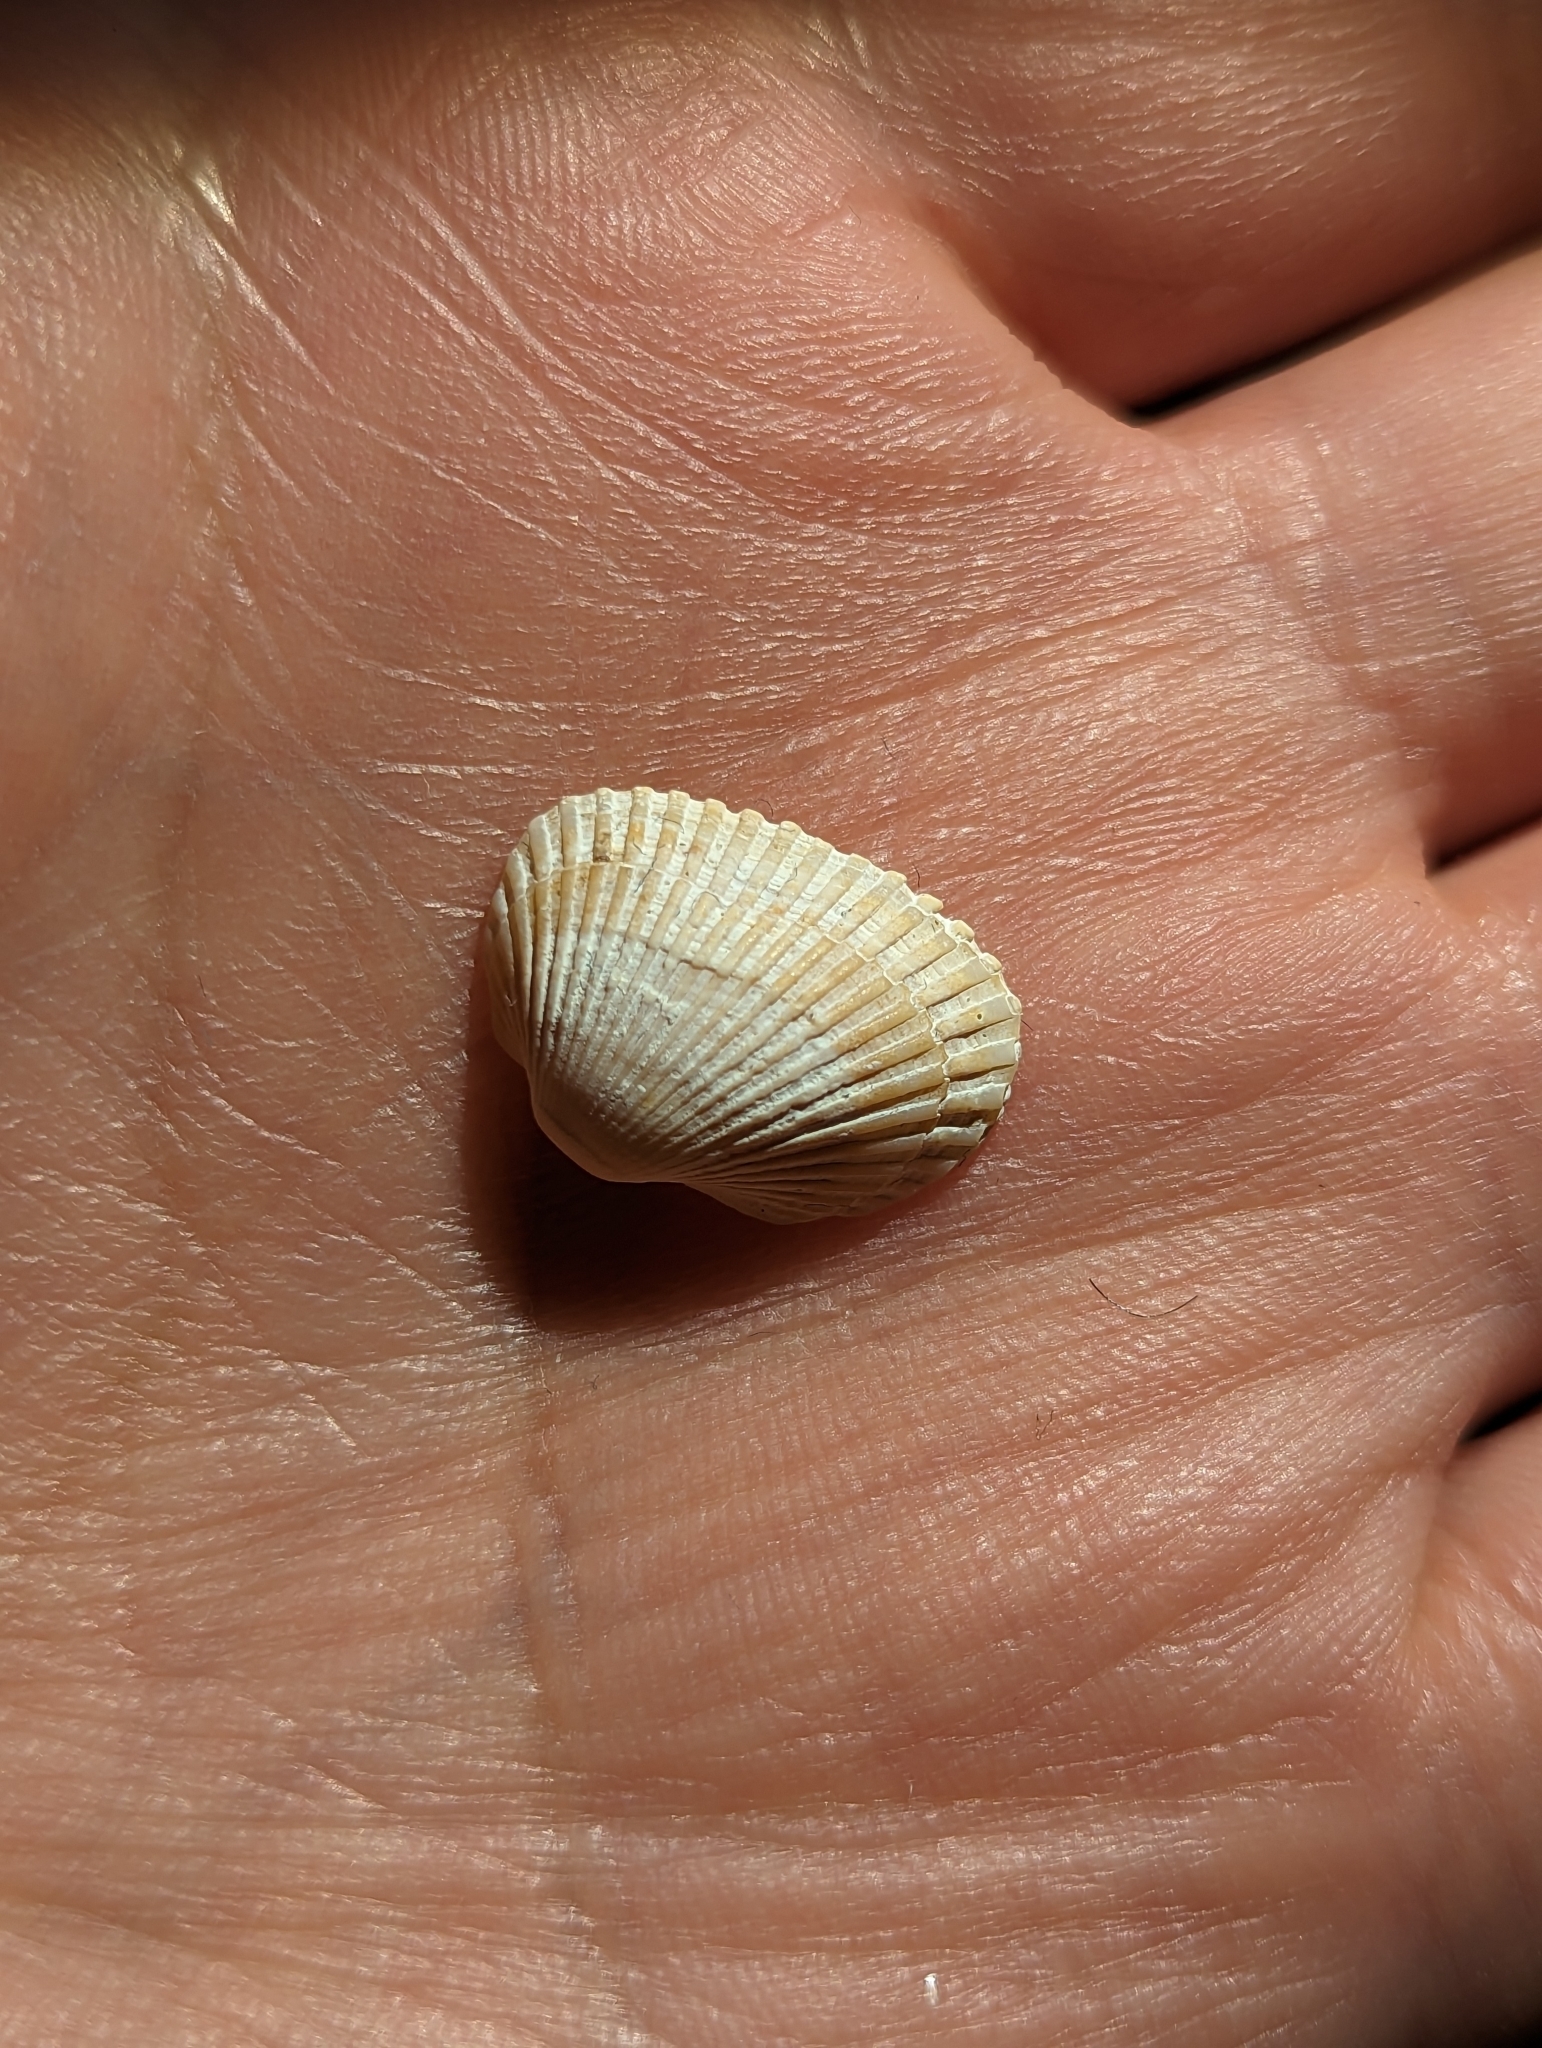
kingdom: Animalia
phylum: Mollusca
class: Bivalvia
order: Arcida
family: Arcidae
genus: Anadara
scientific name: Anadara transversa
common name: Transverse ark
